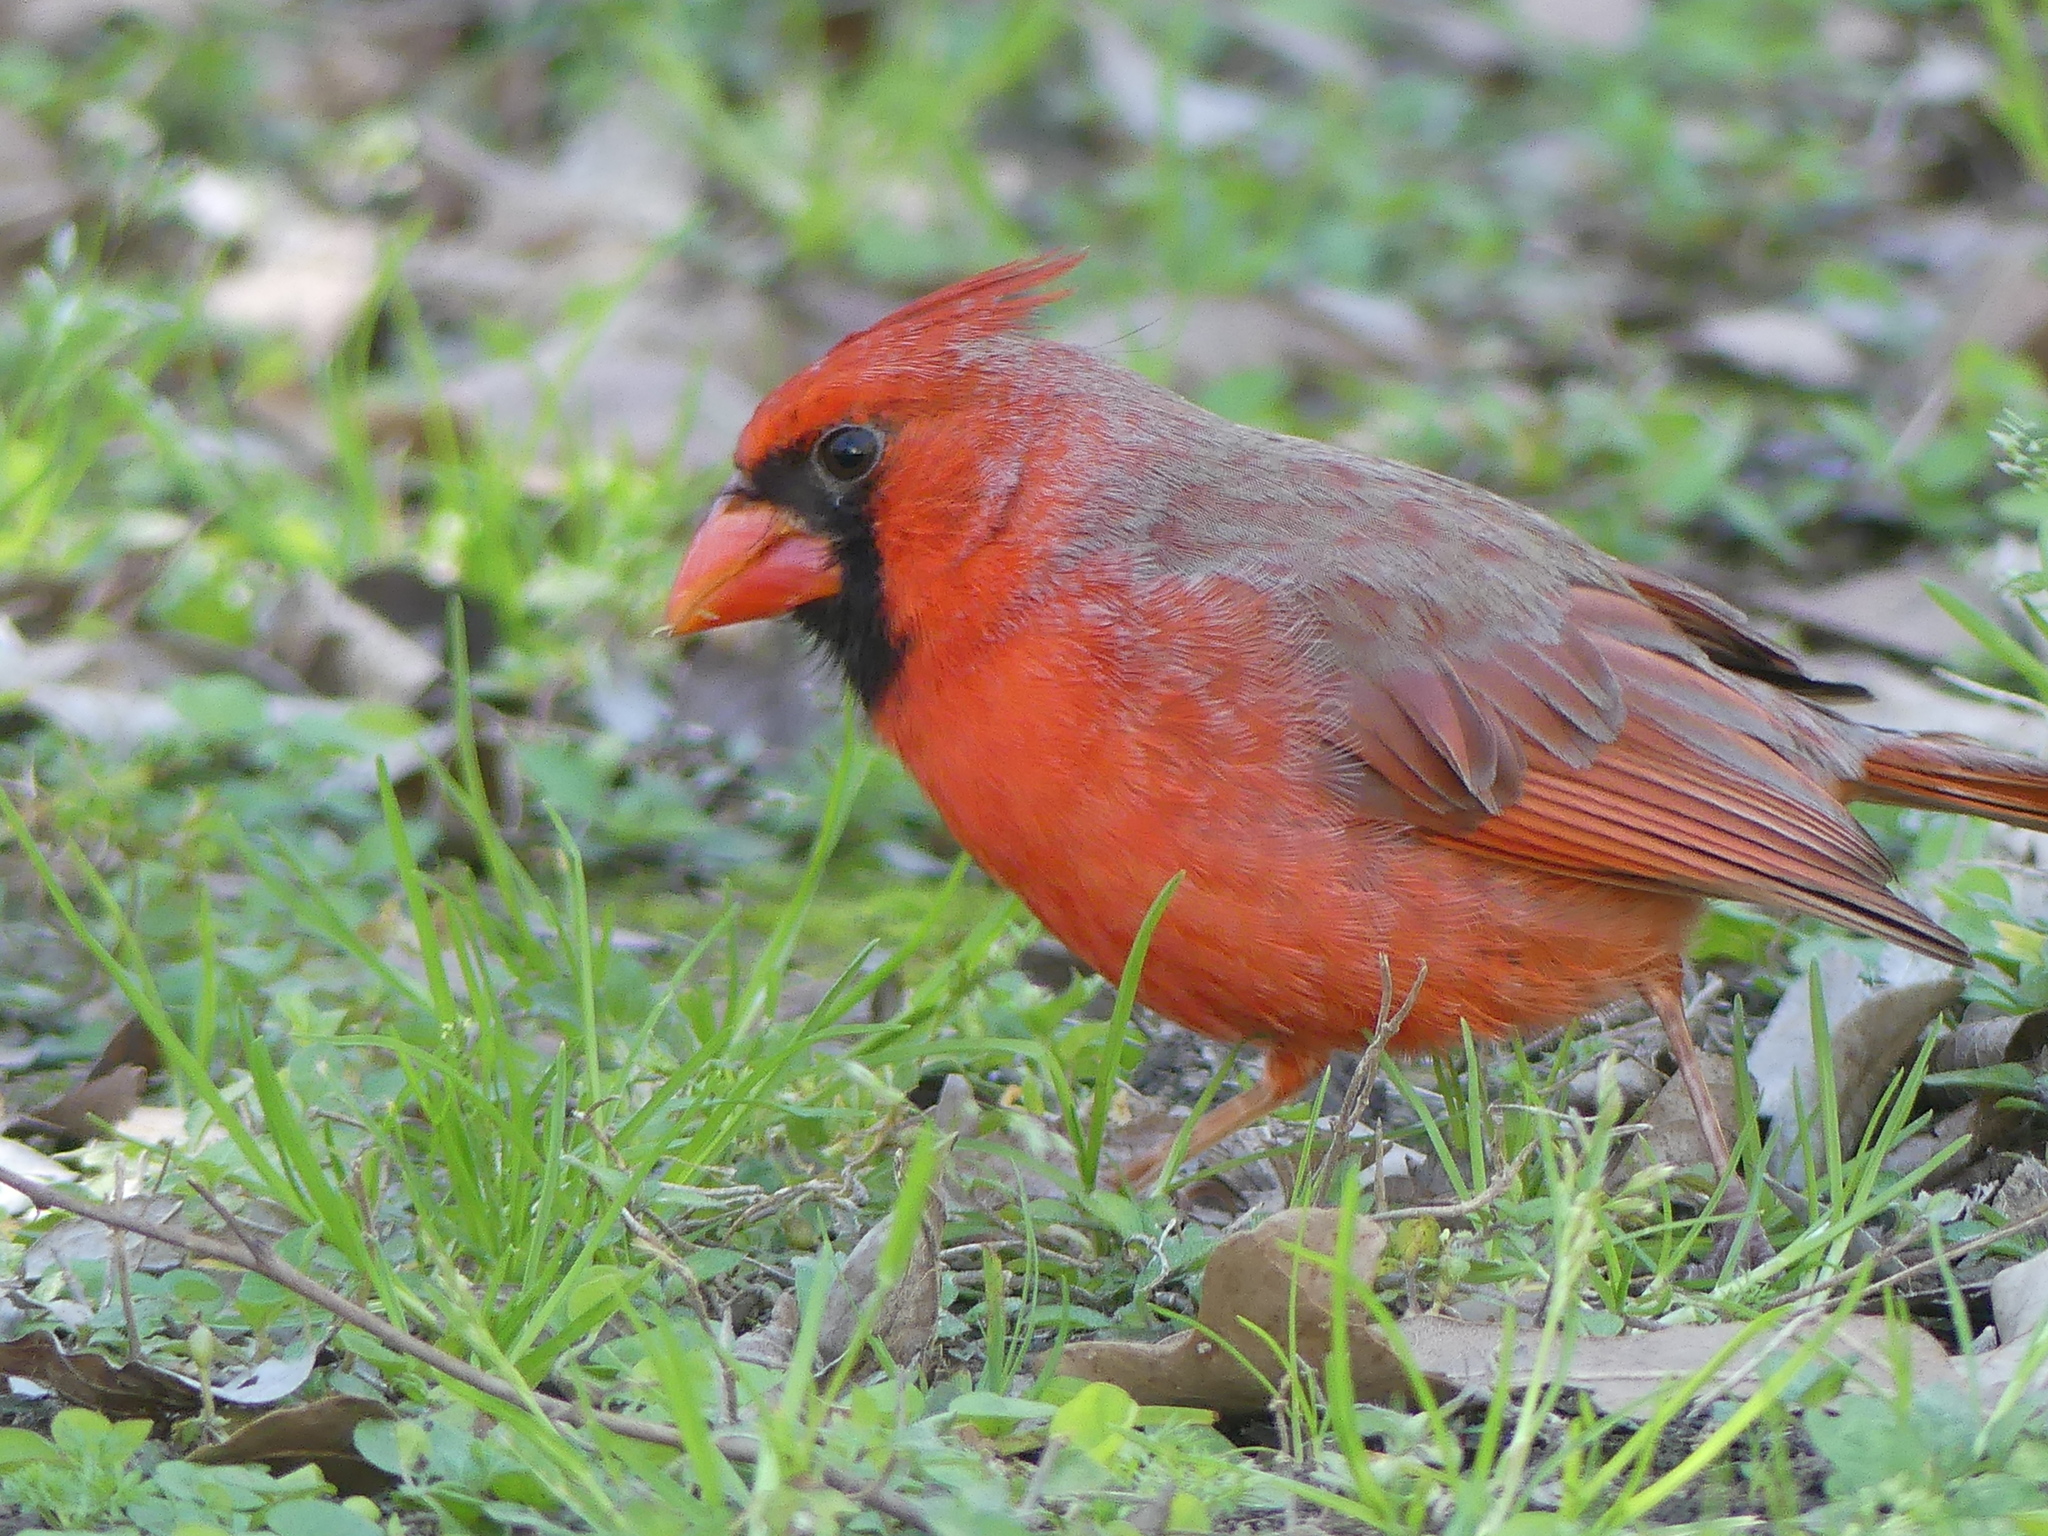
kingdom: Animalia
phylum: Chordata
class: Aves
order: Passeriformes
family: Cardinalidae
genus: Cardinalis
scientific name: Cardinalis cardinalis
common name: Northern cardinal
